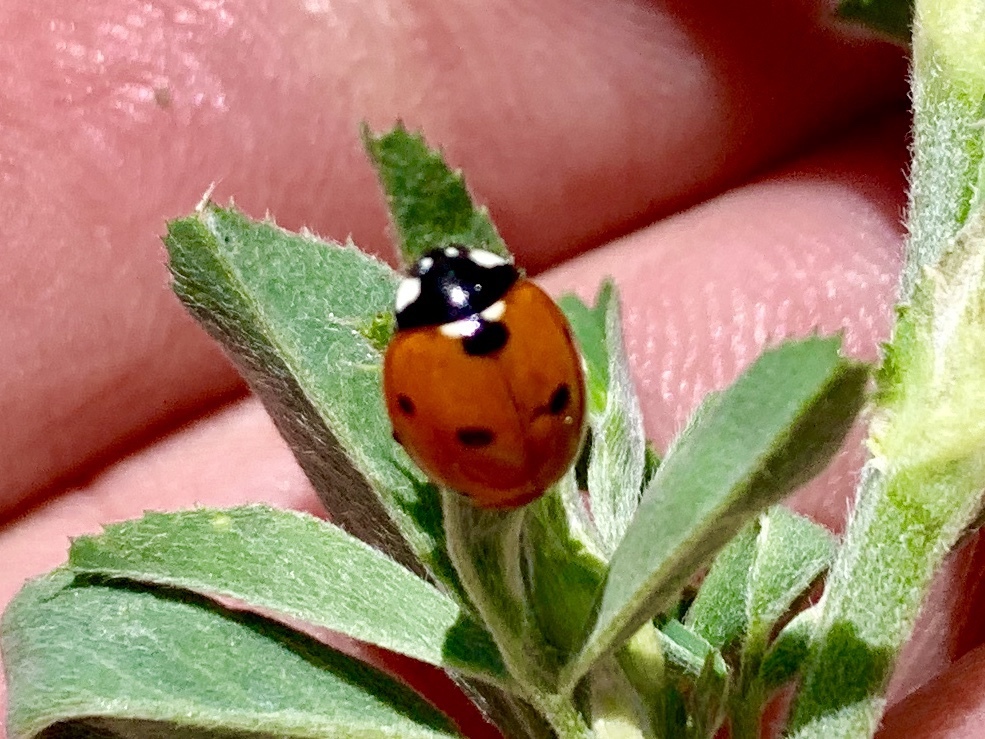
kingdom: Animalia
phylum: Arthropoda
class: Insecta
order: Coleoptera
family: Coccinellidae
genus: Coccinella
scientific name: Coccinella septempunctata
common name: Sevenspotted lady beetle
